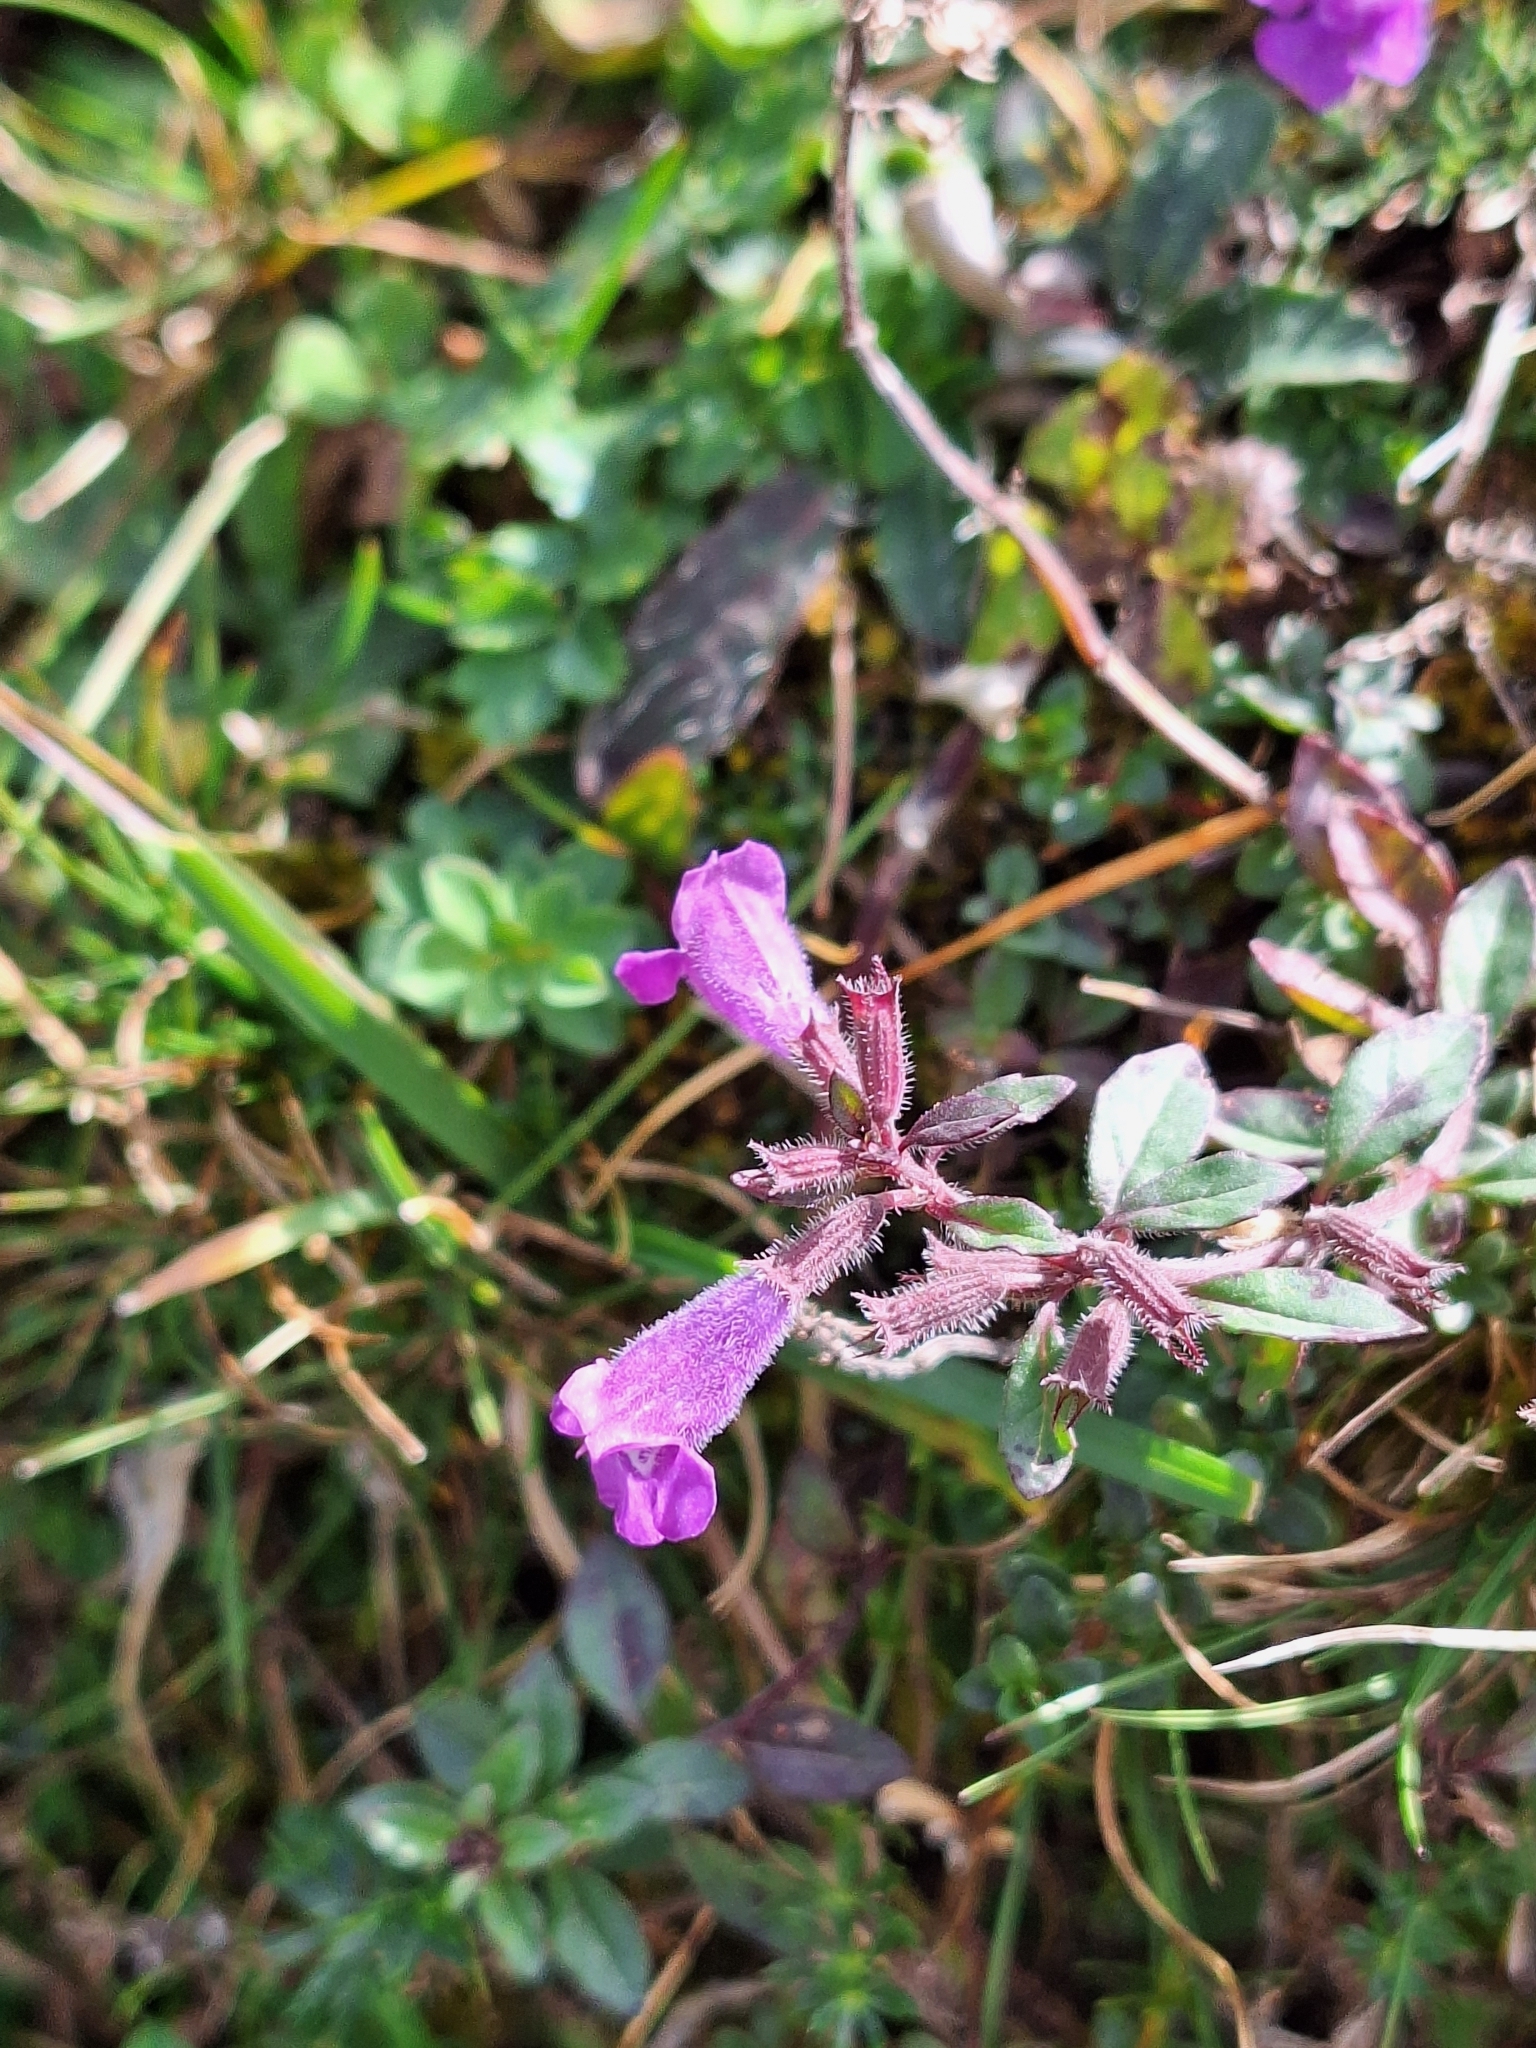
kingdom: Plantae
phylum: Tracheophyta
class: Magnoliopsida
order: Lamiales
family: Lamiaceae
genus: Clinopodium
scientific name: Clinopodium alpinum
